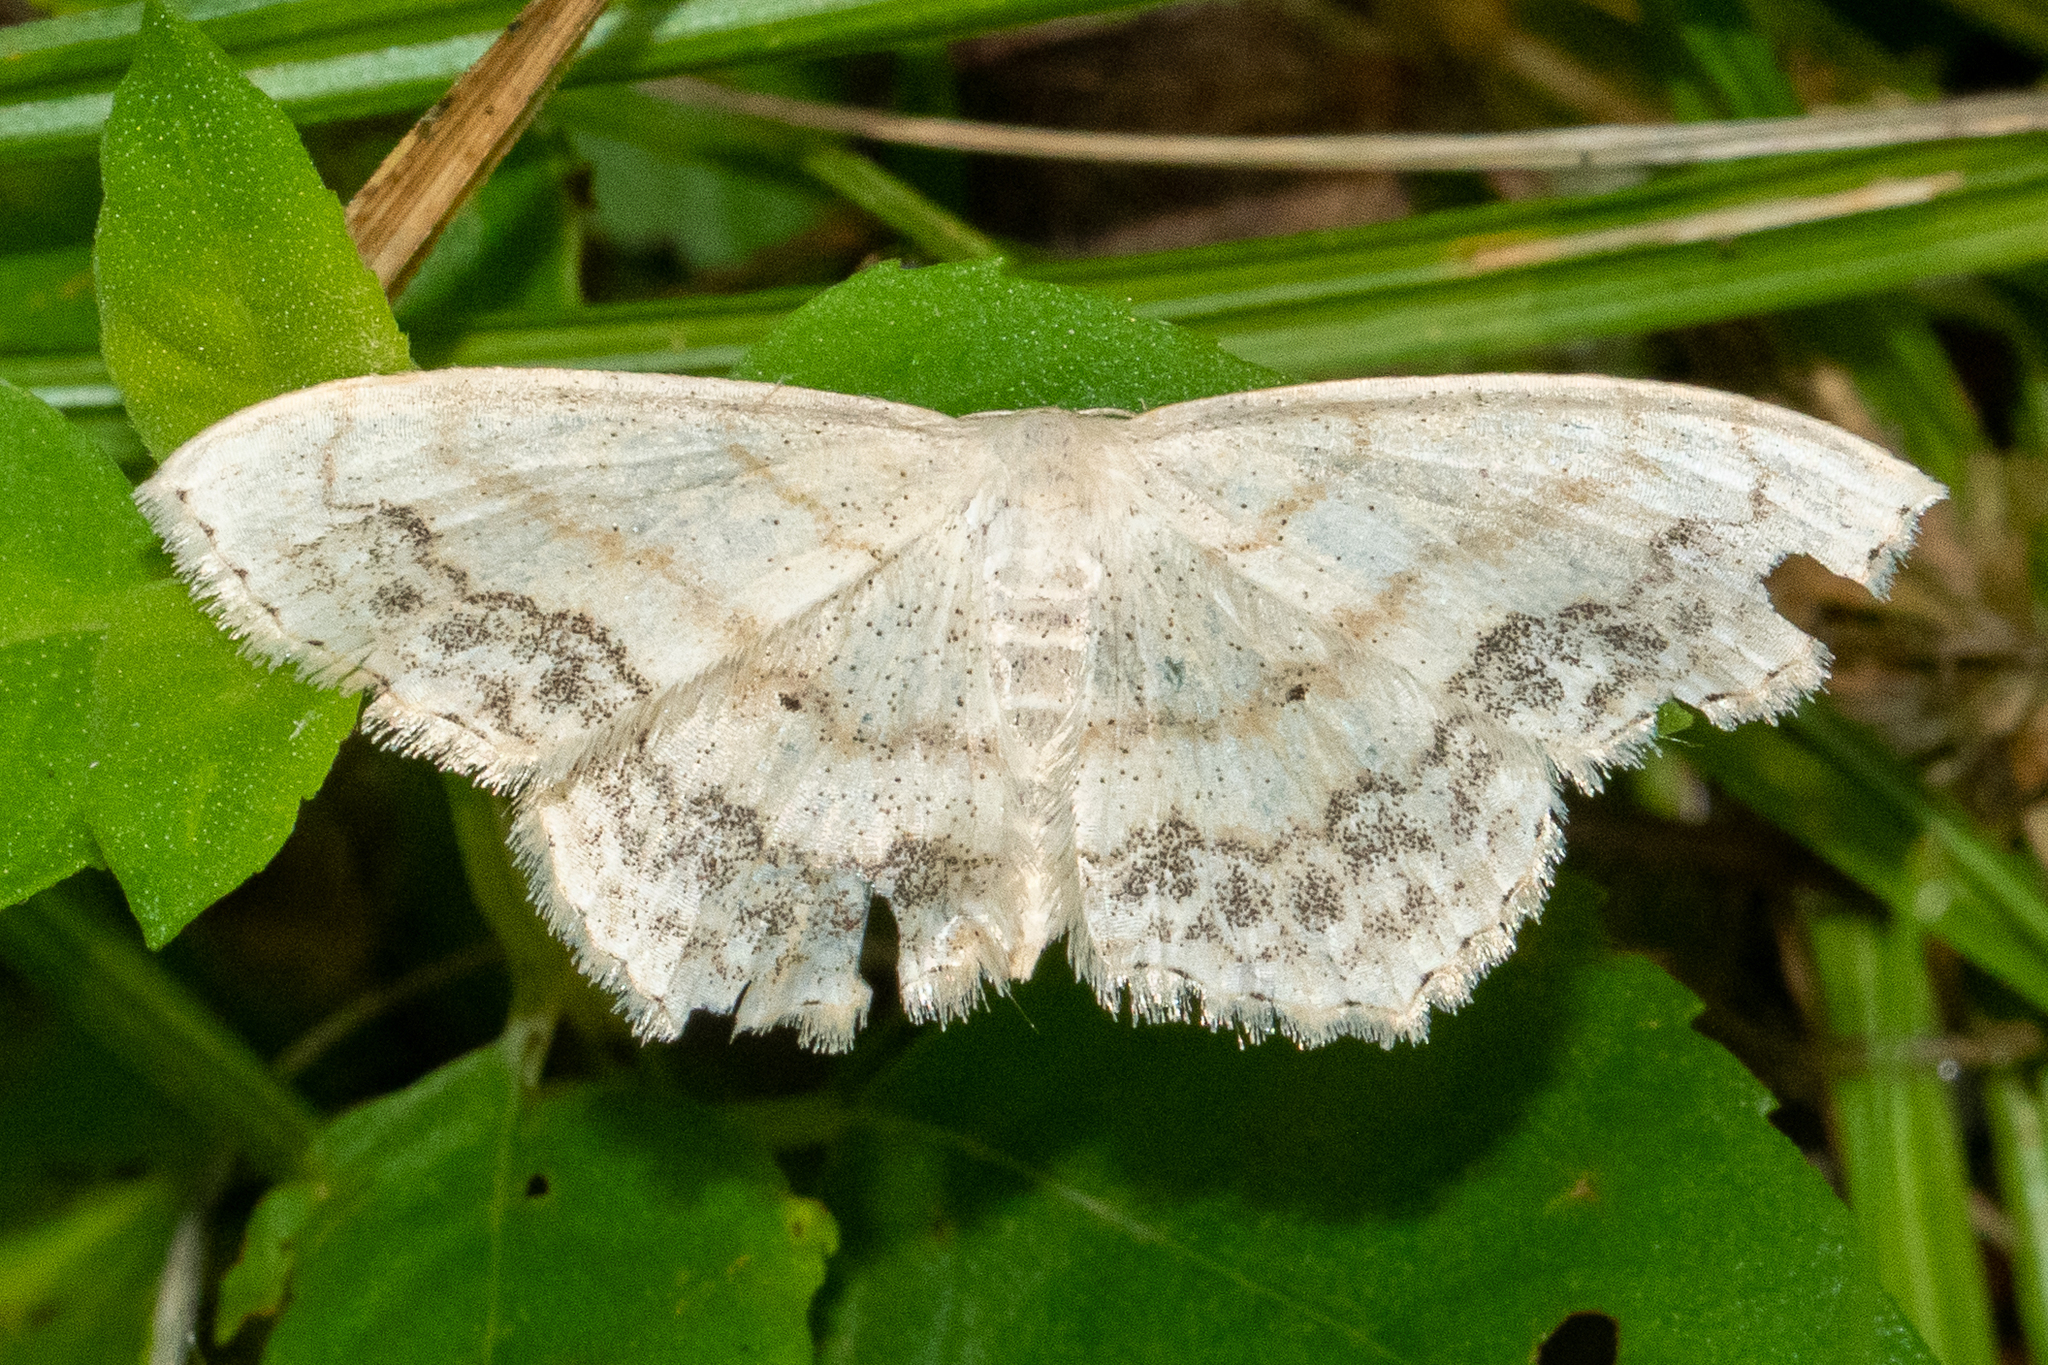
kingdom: Animalia
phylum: Arthropoda
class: Insecta
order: Lepidoptera
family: Geometridae
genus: Scopula
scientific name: Scopula limboundata
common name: Large lace border
